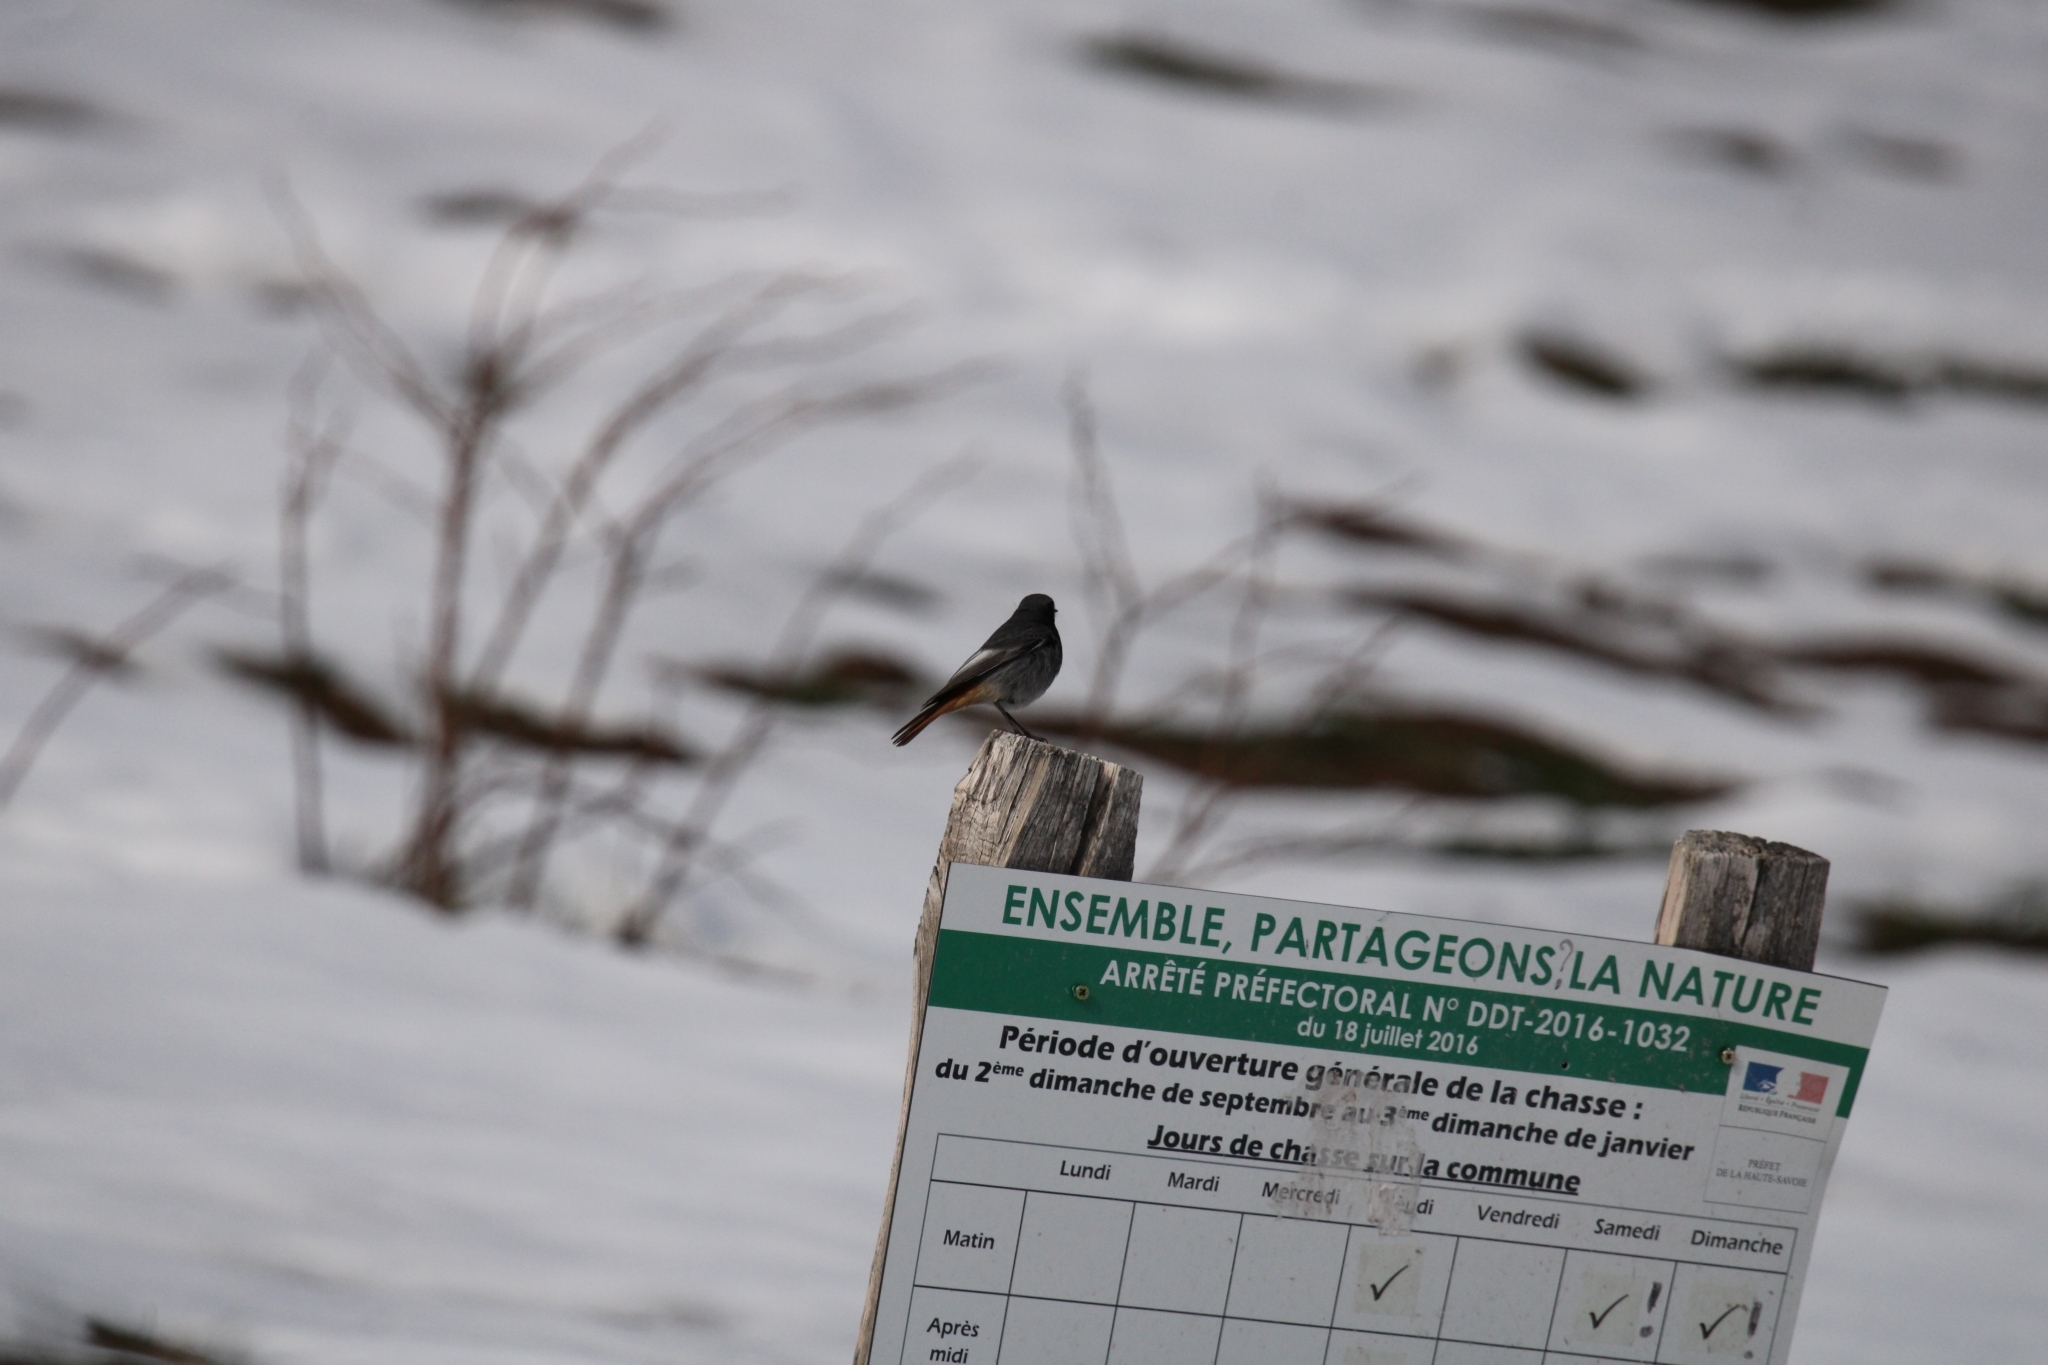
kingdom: Animalia
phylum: Chordata
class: Aves
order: Passeriformes
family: Muscicapidae
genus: Phoenicurus
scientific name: Phoenicurus ochruros
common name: Black redstart
